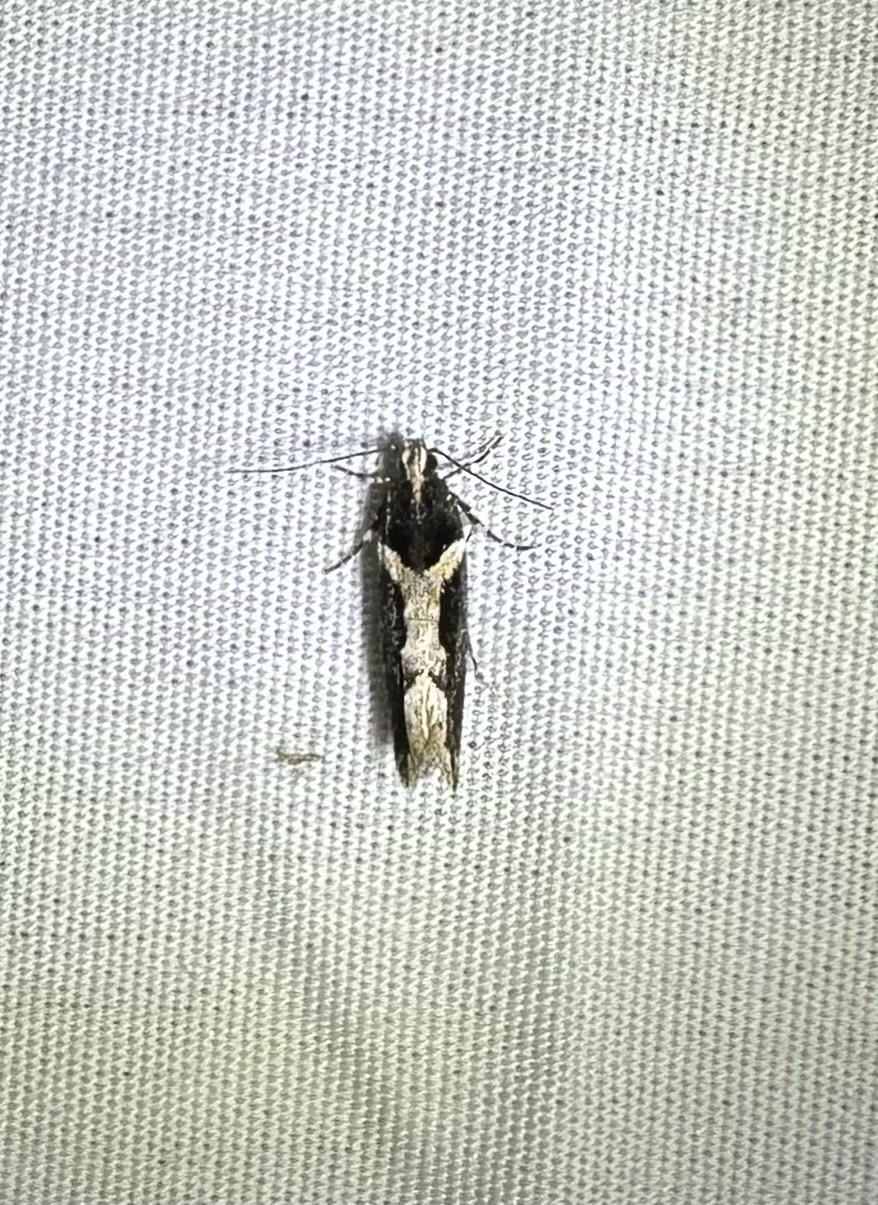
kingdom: Animalia
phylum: Arthropoda
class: Insecta
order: Lepidoptera
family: Gelechiidae
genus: Telphusa
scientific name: Telphusa longifasciella
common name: Y-backed telphusa
